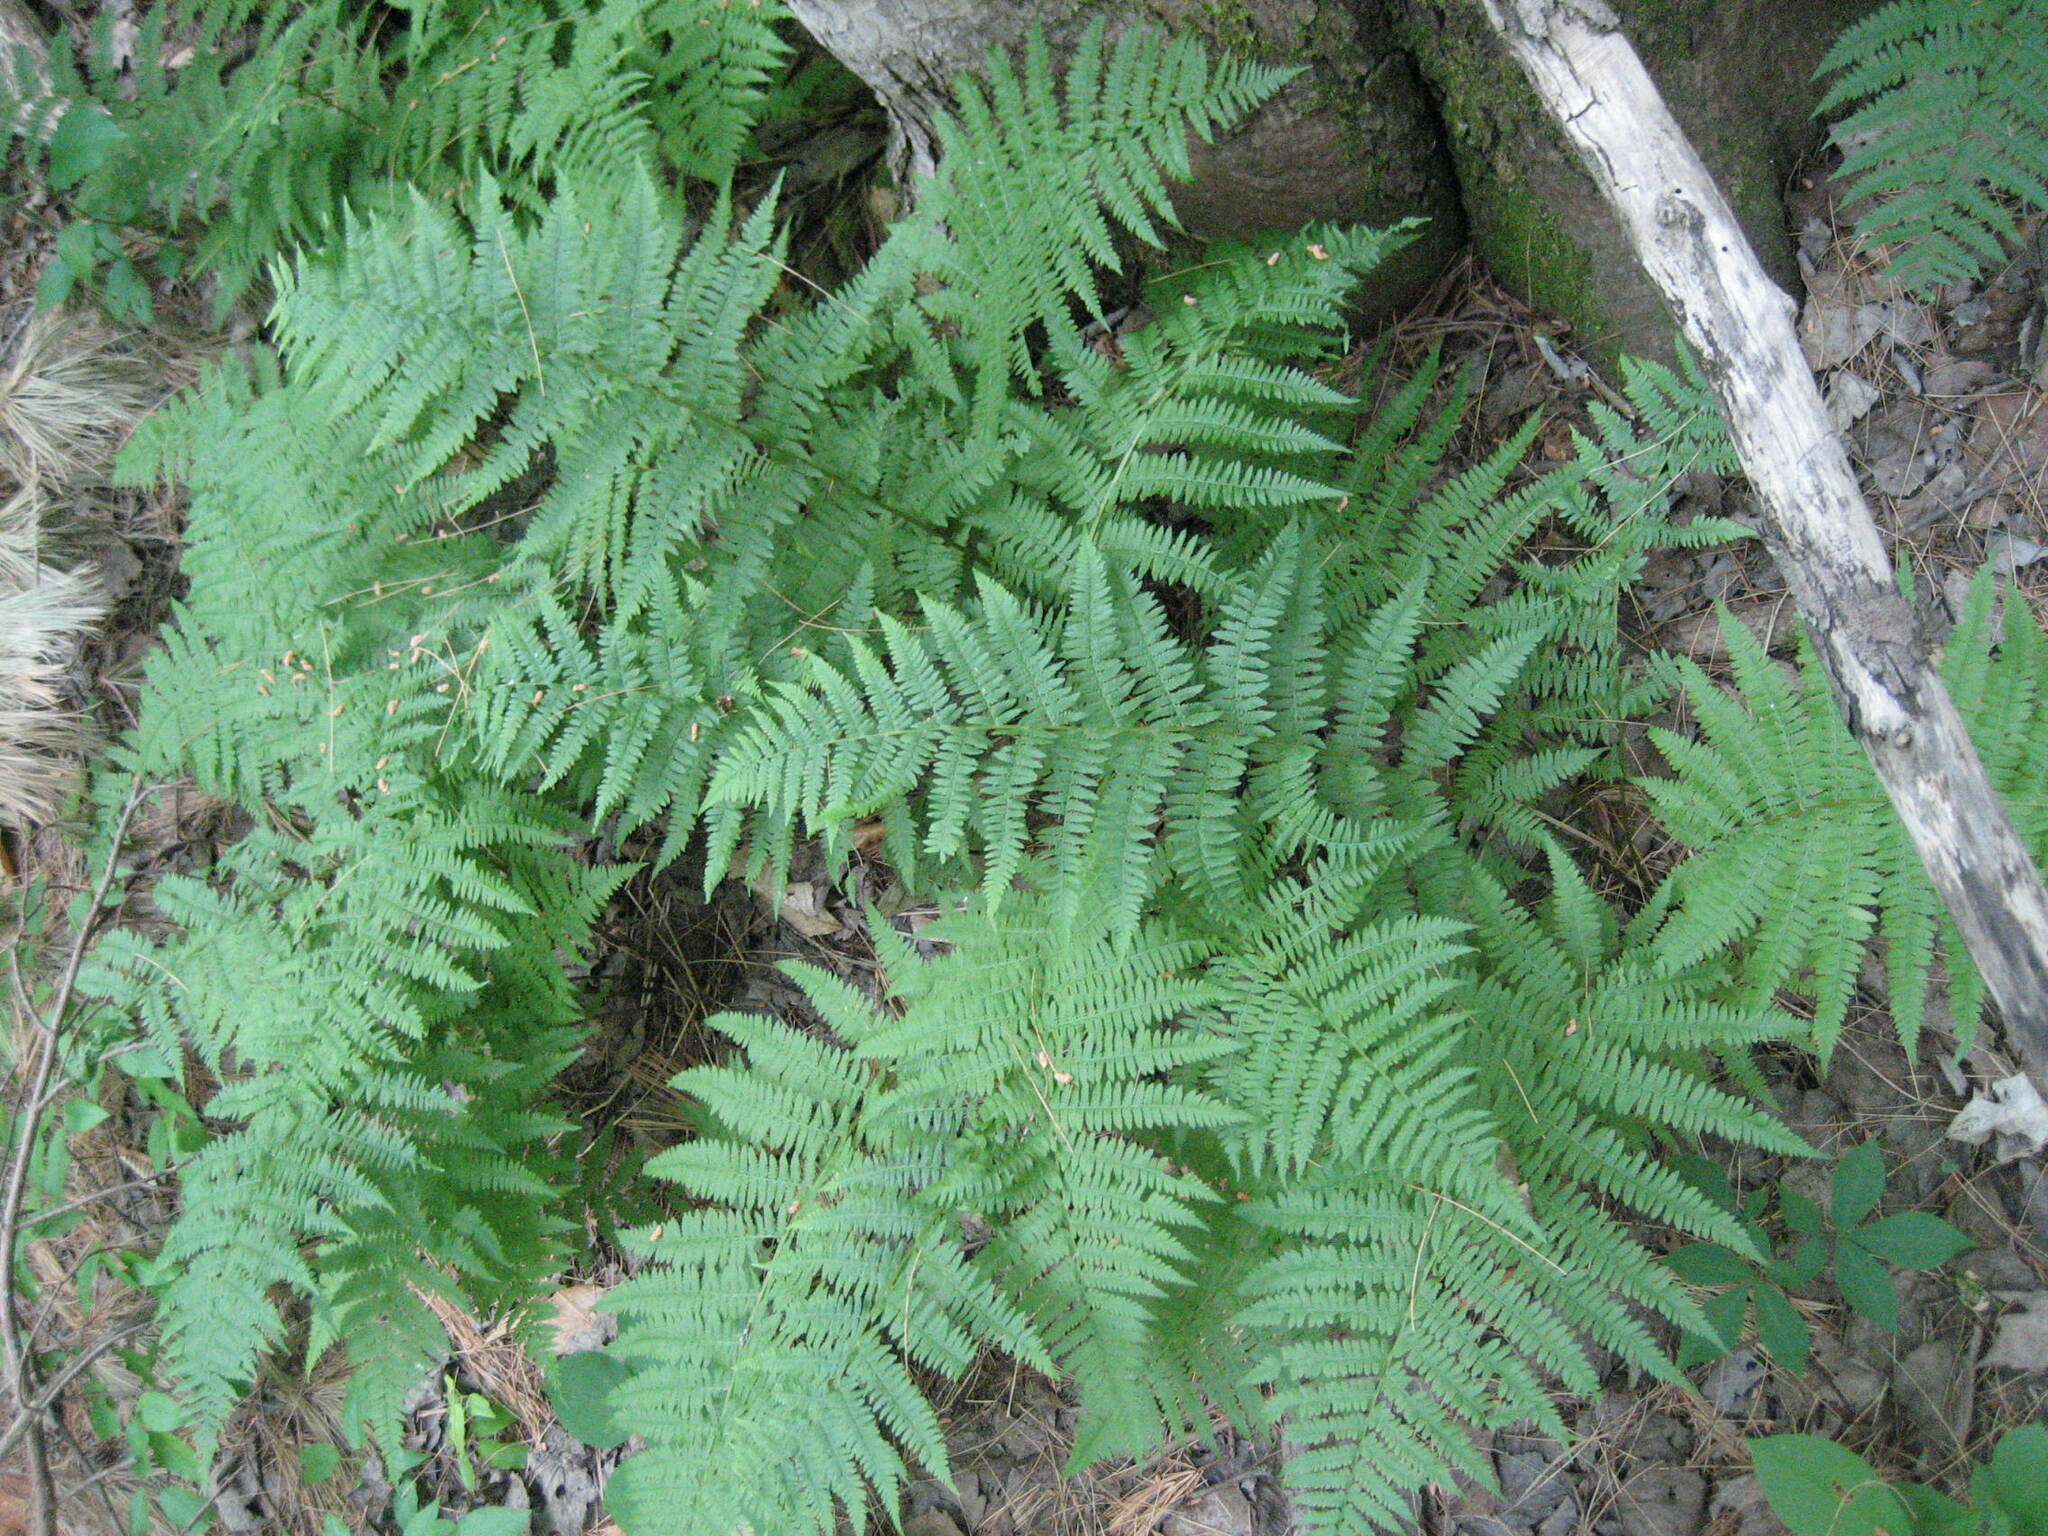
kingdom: Plantae
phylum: Tracheophyta
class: Polypodiopsida
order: Polypodiales
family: Athyriaceae
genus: Athyrium
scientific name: Athyrium angustum
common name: Northern lady fern
